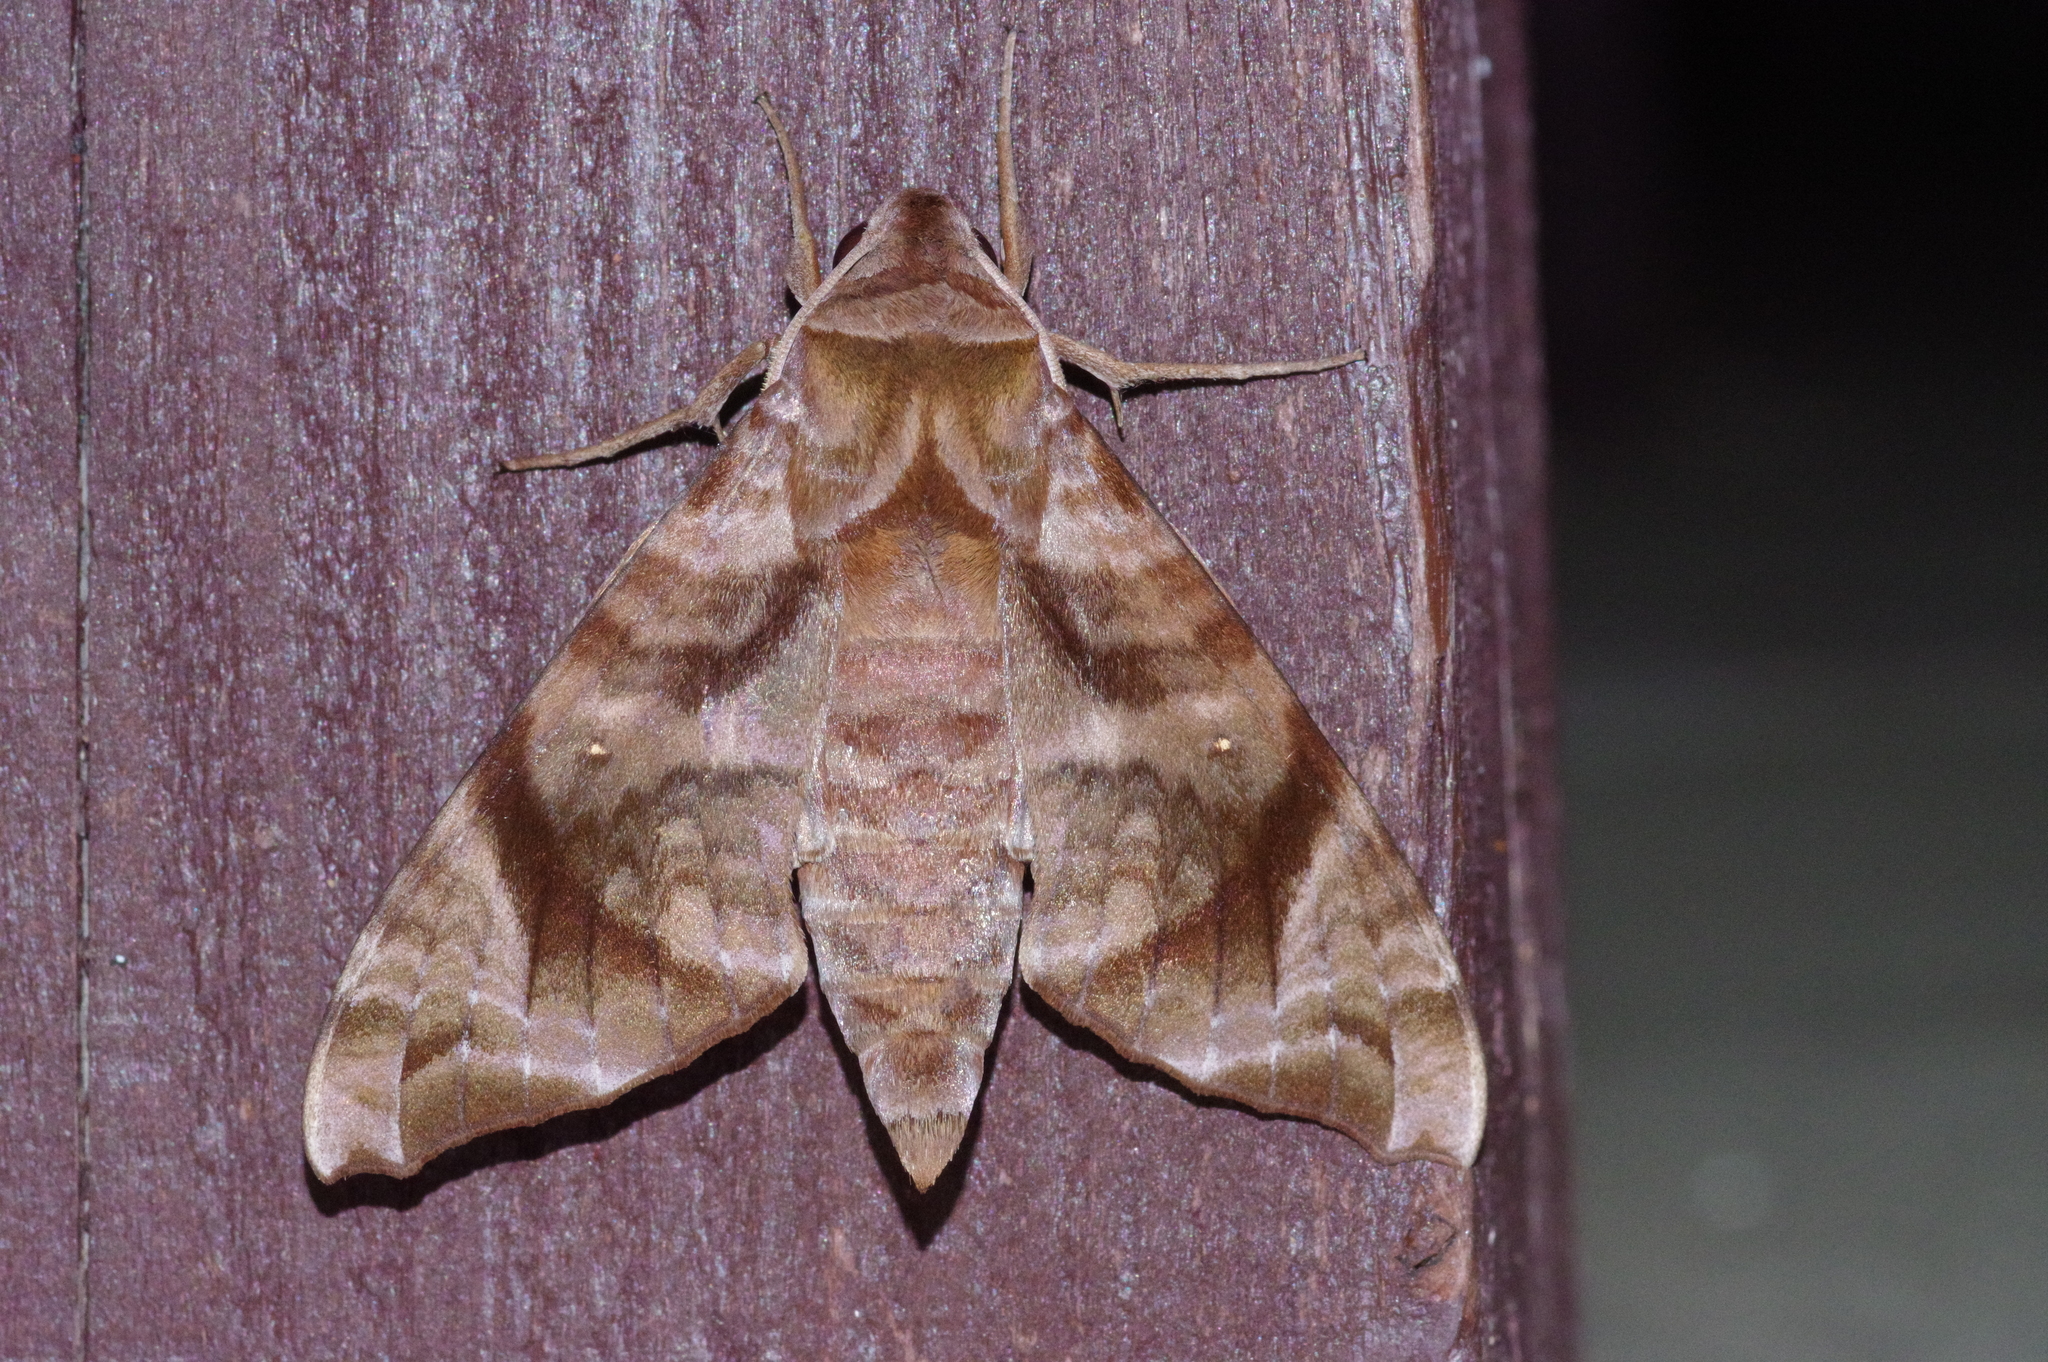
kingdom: Animalia
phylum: Arthropoda
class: Insecta
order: Lepidoptera
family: Sphingidae
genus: Acosmeryx
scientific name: Acosmeryx castanea
